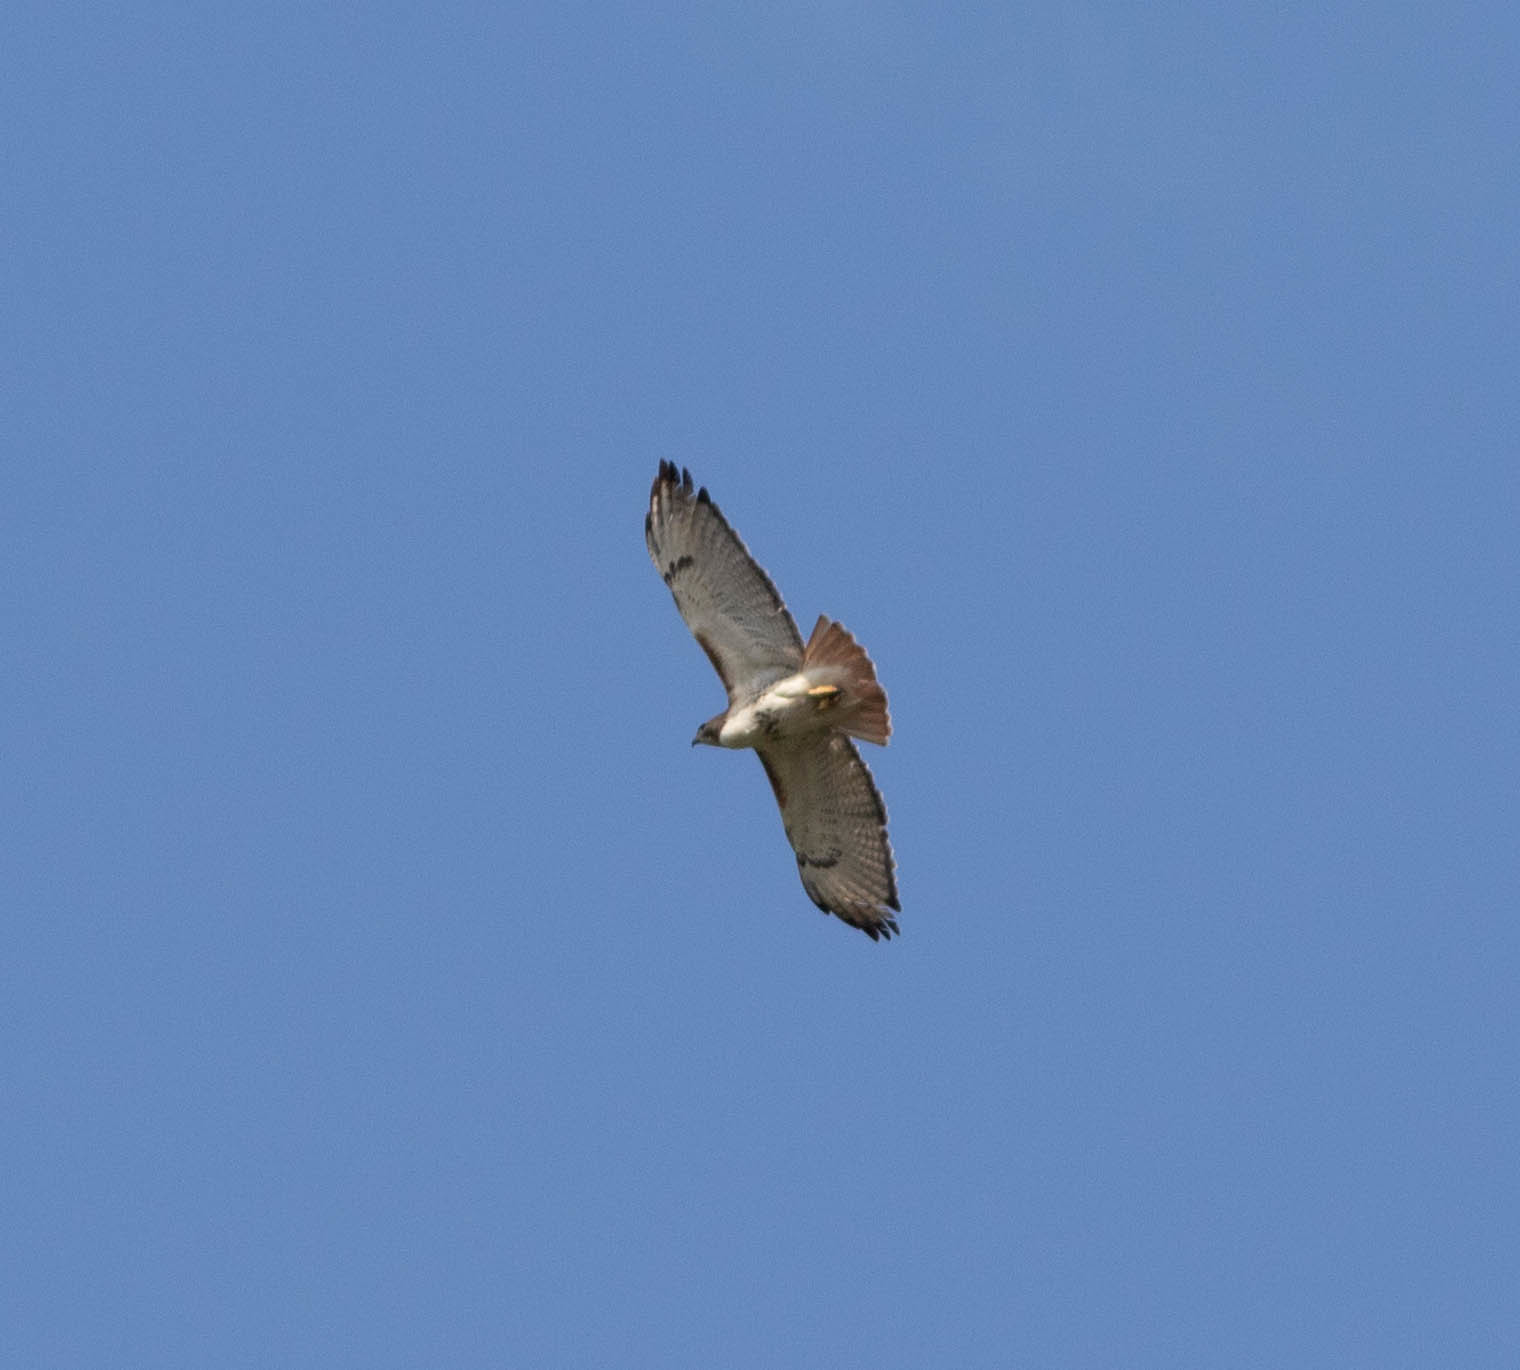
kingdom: Animalia
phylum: Chordata
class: Aves
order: Accipitriformes
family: Accipitridae
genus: Buteo
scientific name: Buteo jamaicensis
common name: Red-tailed hawk
